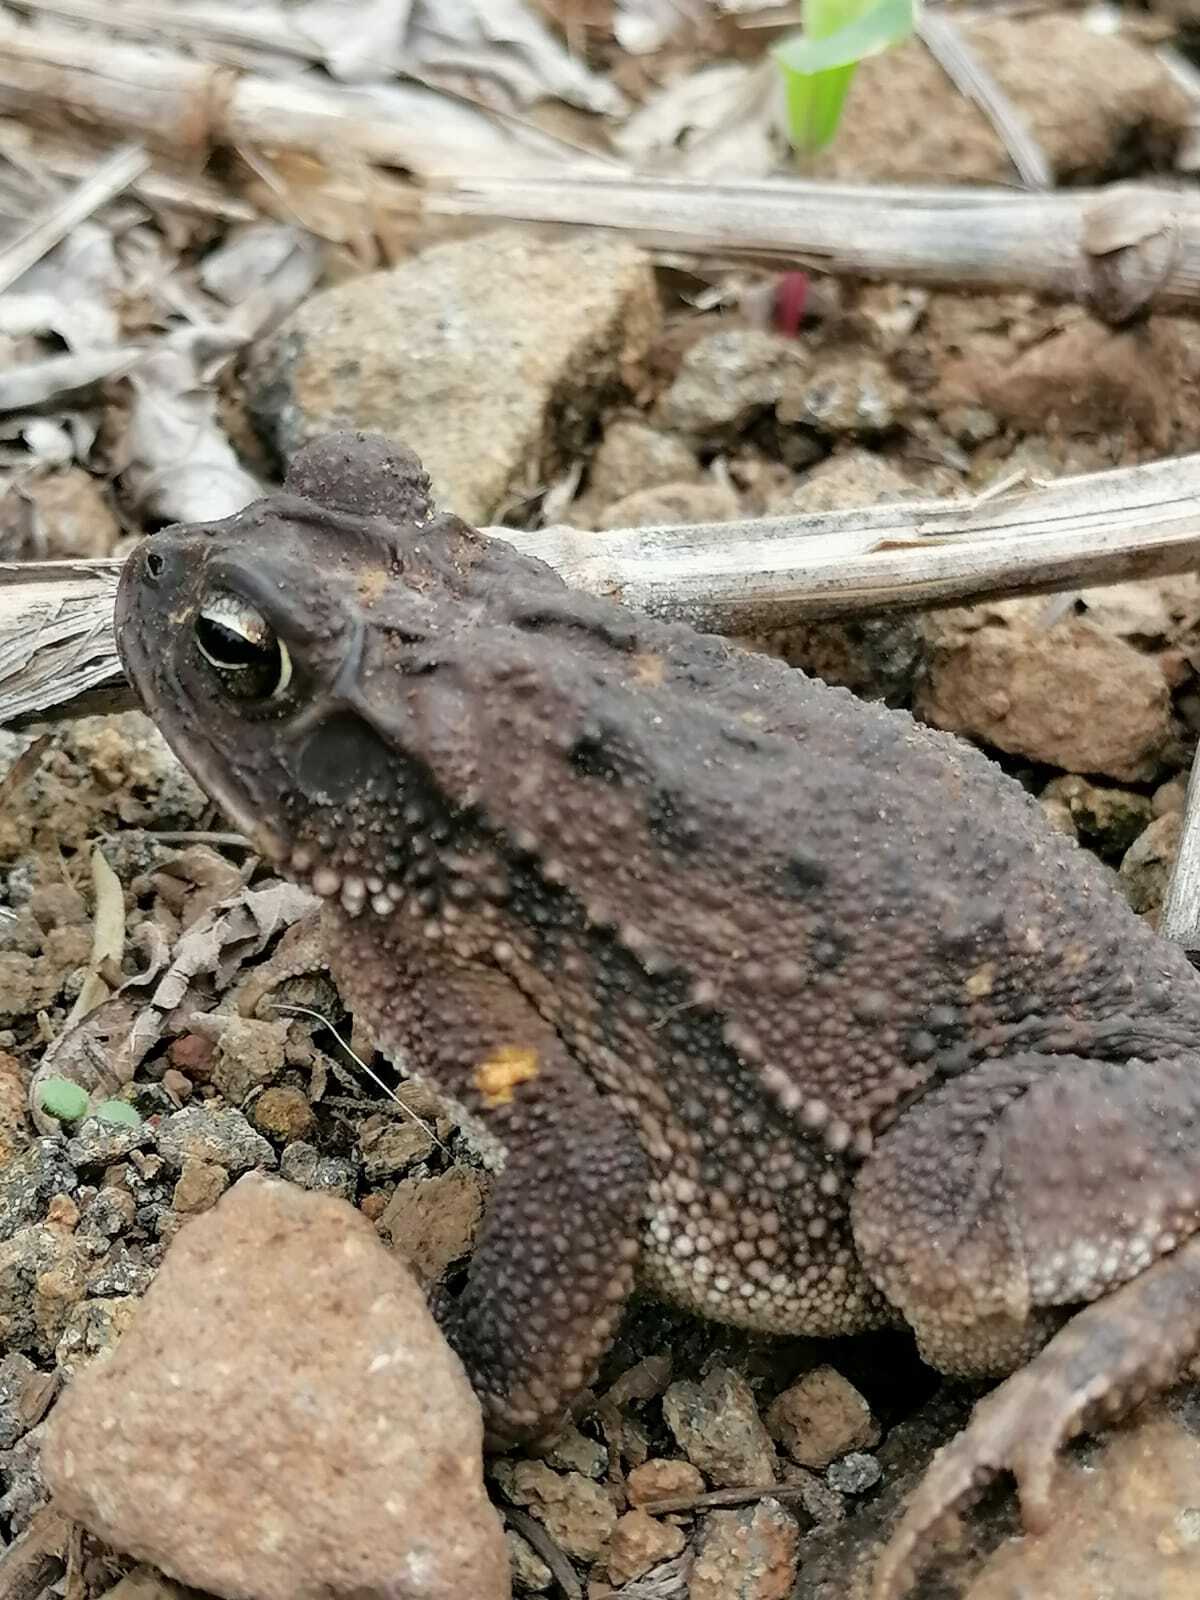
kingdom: Animalia
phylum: Chordata
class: Amphibia
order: Anura
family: Bufonidae
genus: Incilius
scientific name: Incilius luetkenii
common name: Yellow toad
